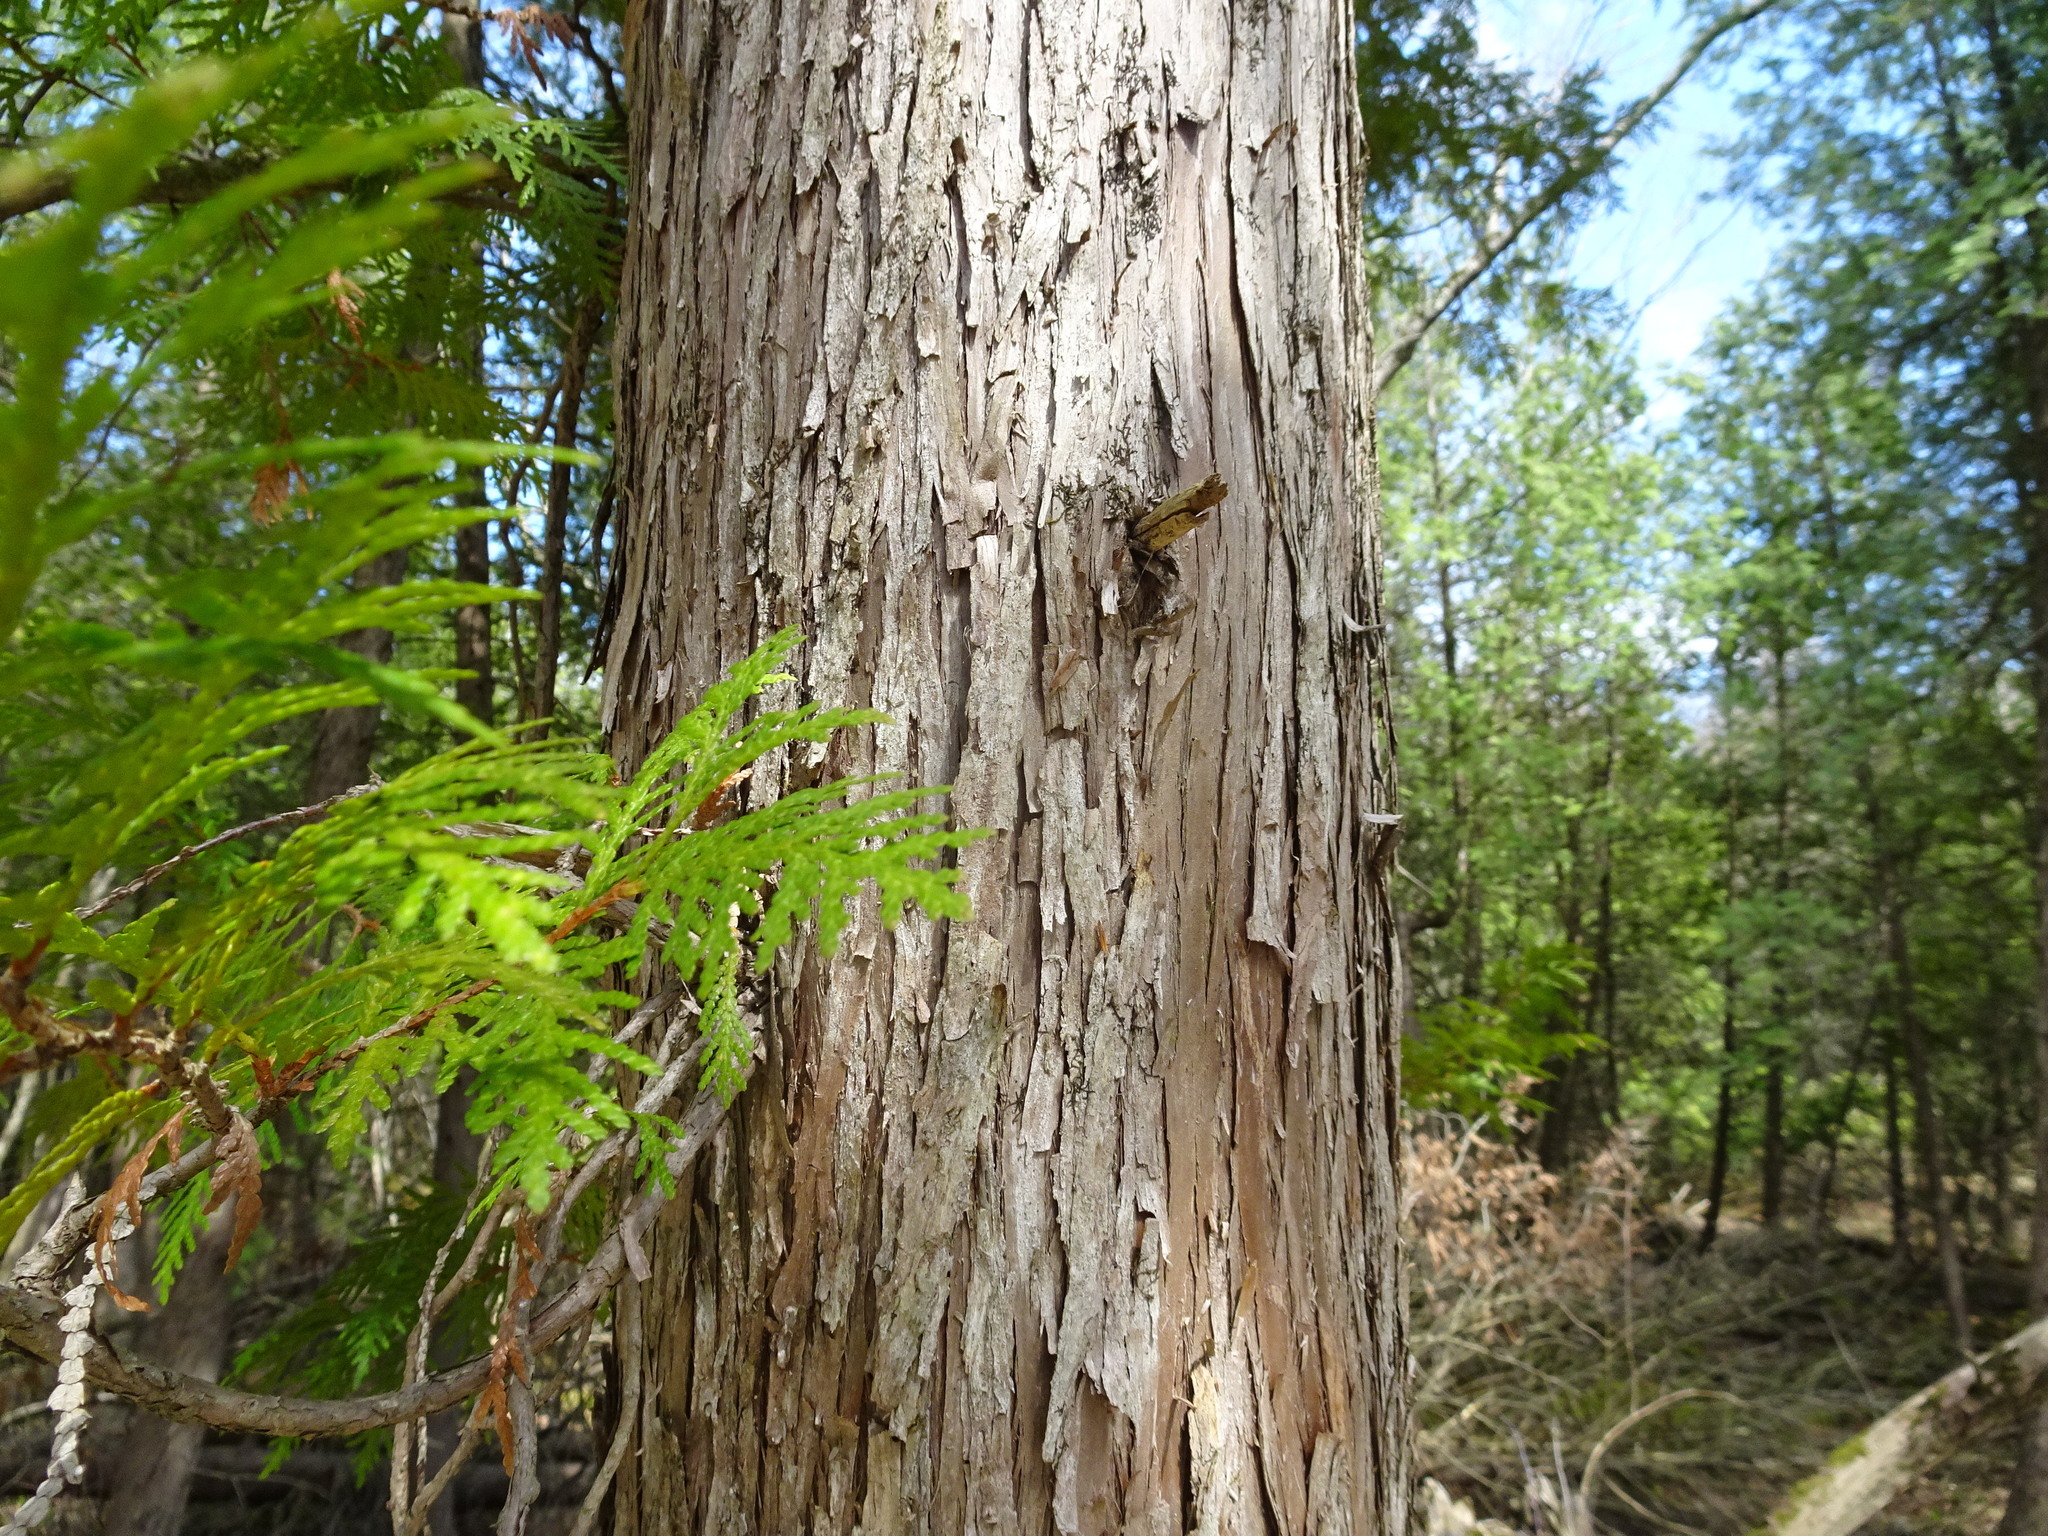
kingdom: Plantae
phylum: Tracheophyta
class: Pinopsida
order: Pinales
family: Cupressaceae
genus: Thuja
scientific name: Thuja occidentalis
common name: Northern white-cedar
